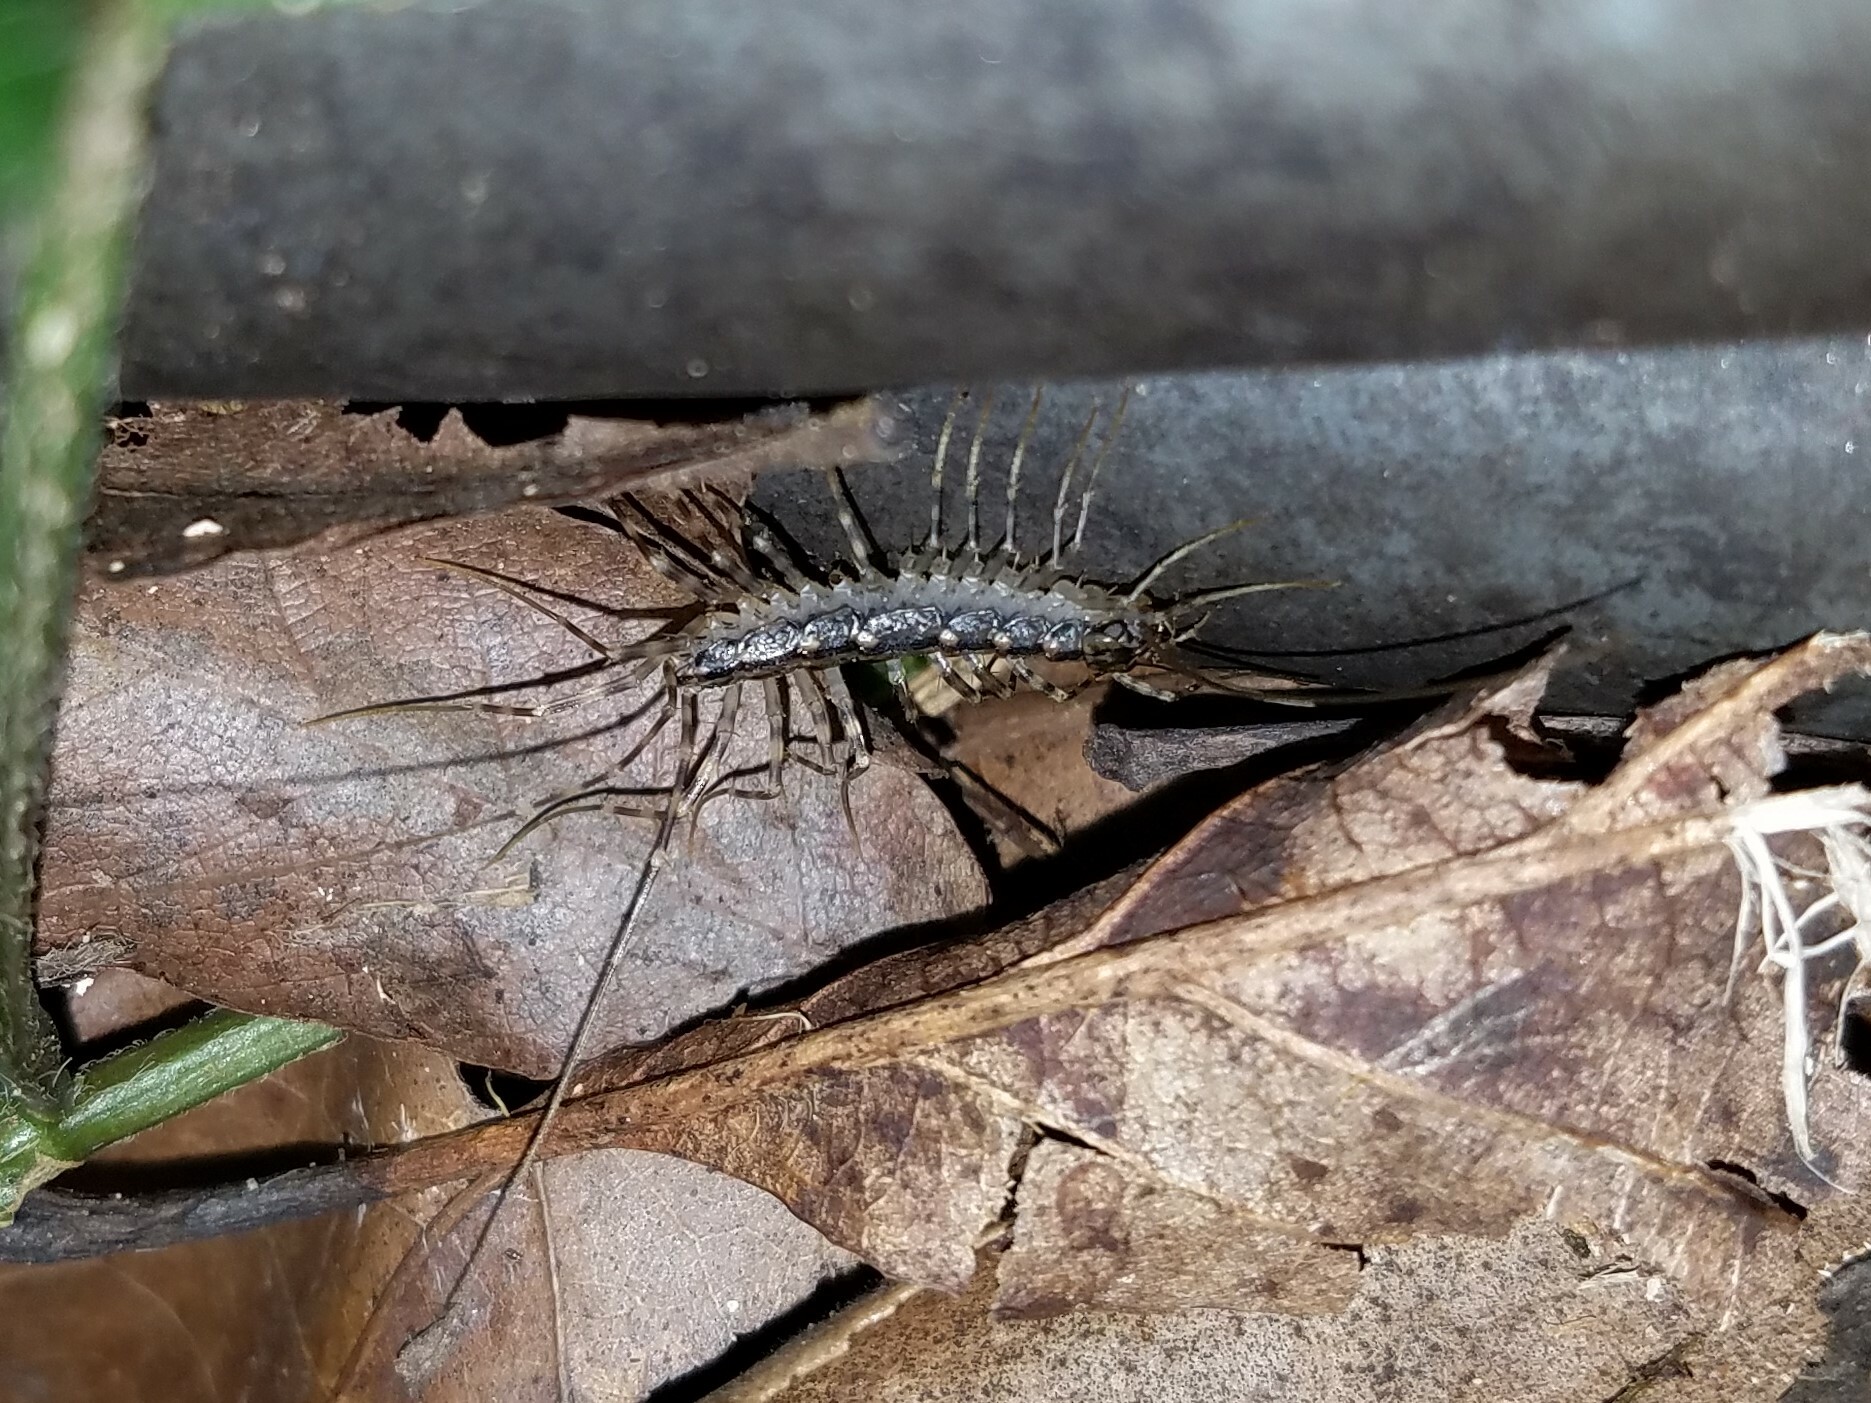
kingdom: Animalia
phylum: Arthropoda
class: Chilopoda
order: Scutigeromorpha
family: Scutigeridae
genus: Thereuonema
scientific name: Thereuonema tuberculata
